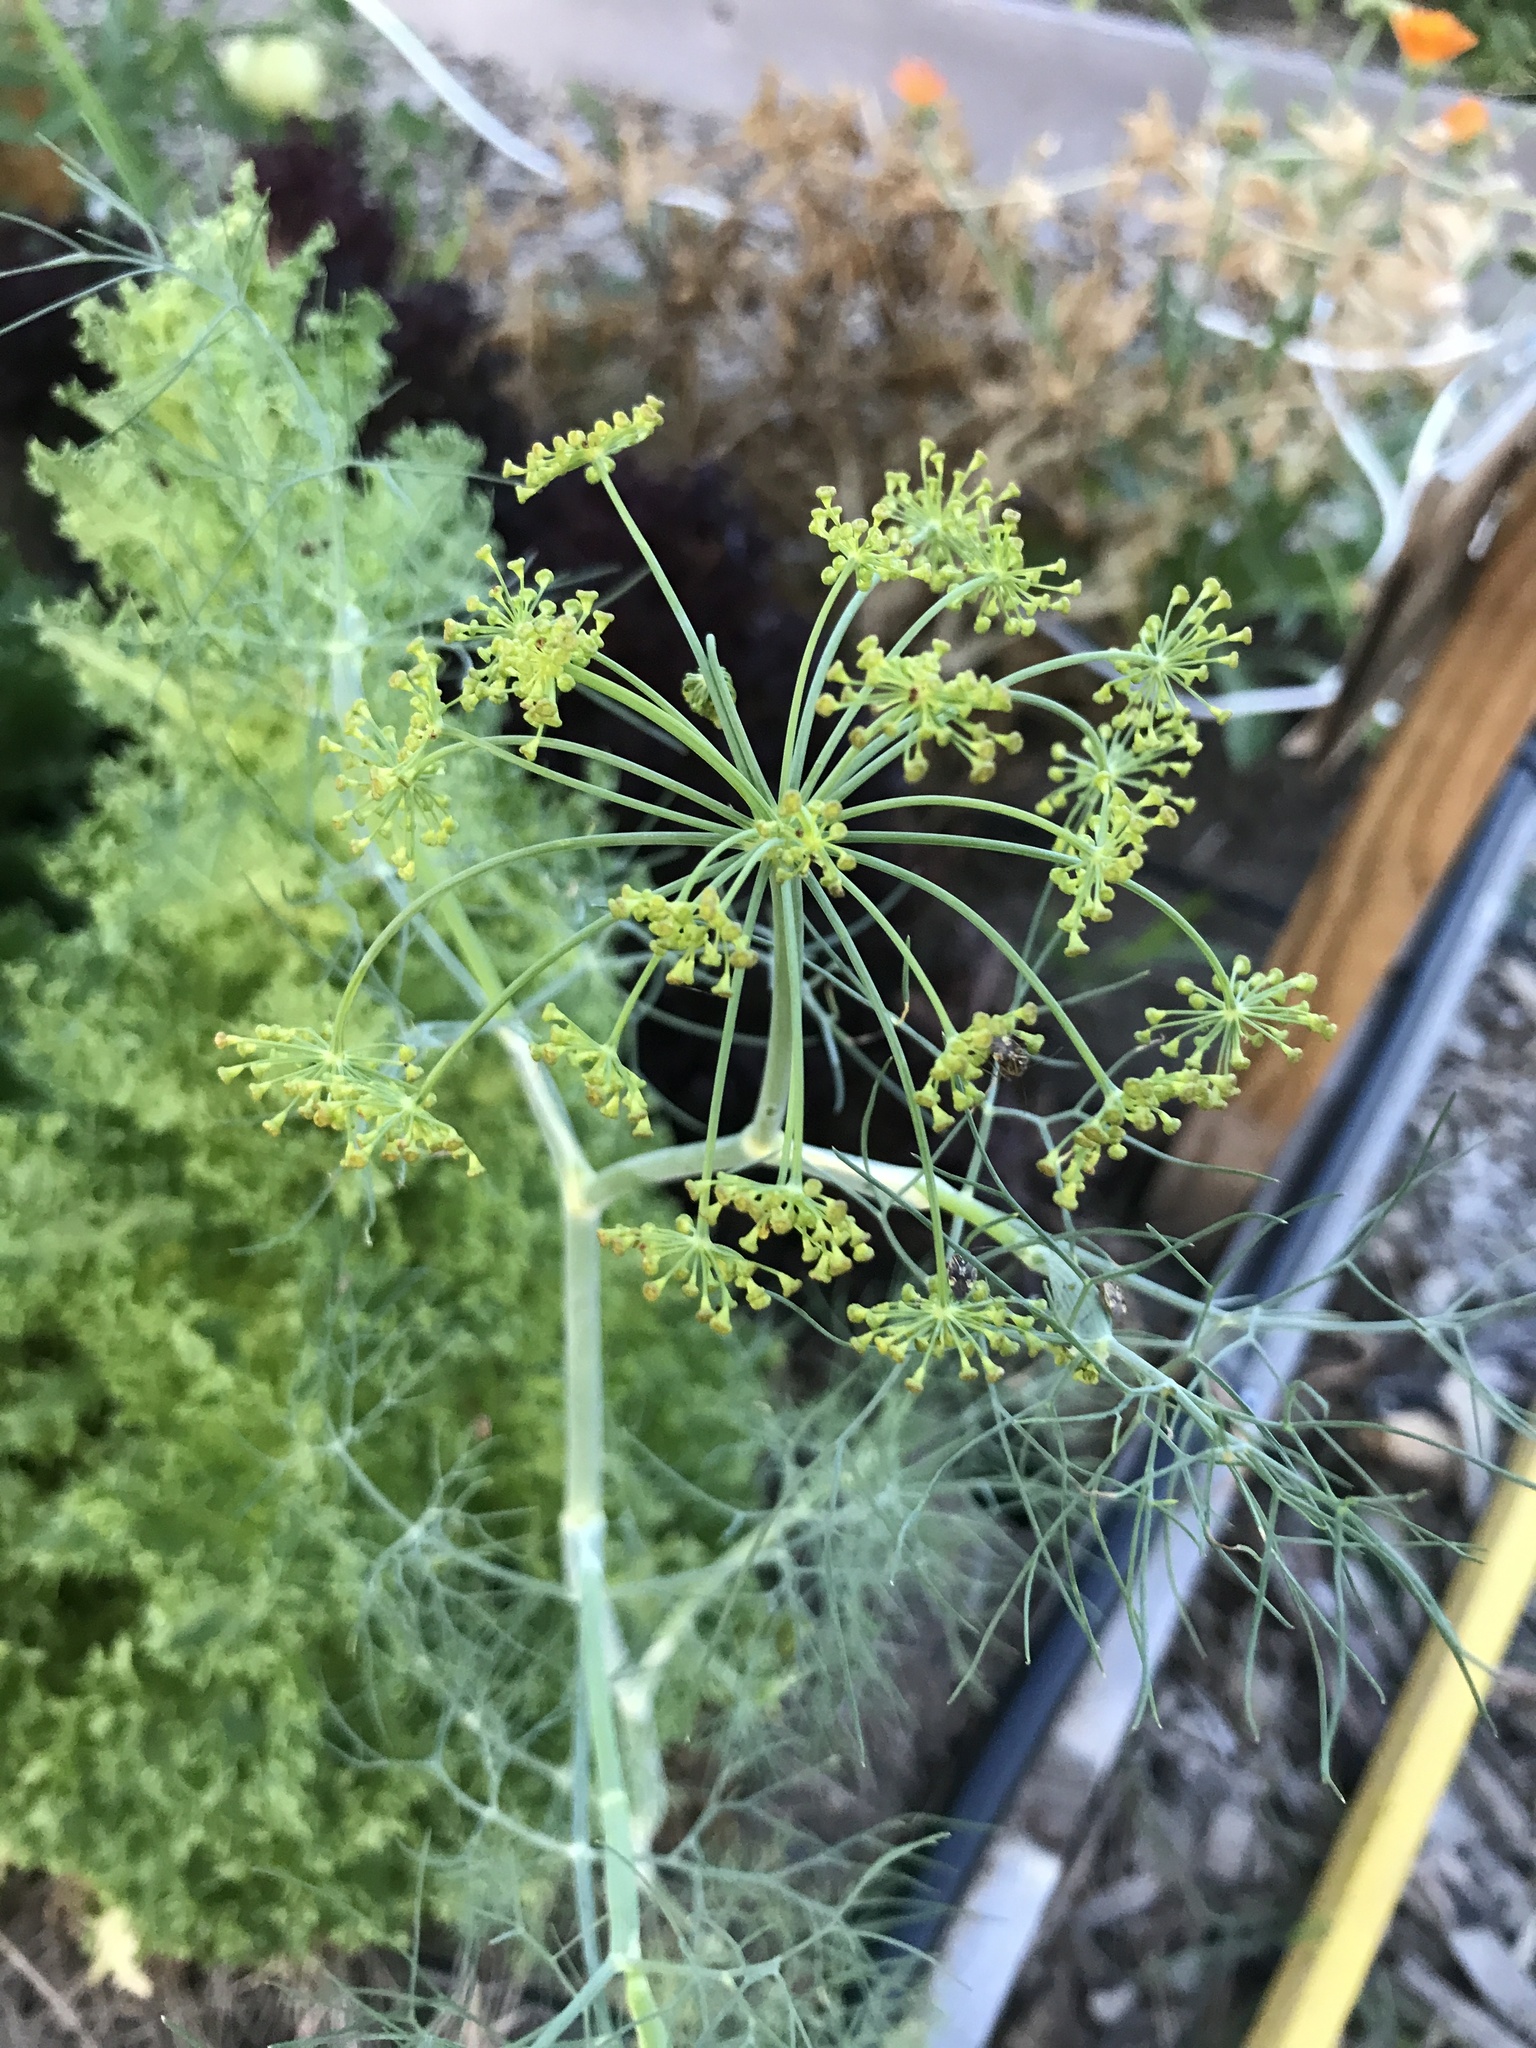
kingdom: Plantae
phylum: Tracheophyta
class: Magnoliopsida
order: Apiales
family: Apiaceae
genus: Foeniculum
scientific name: Foeniculum vulgare
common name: Fennel
